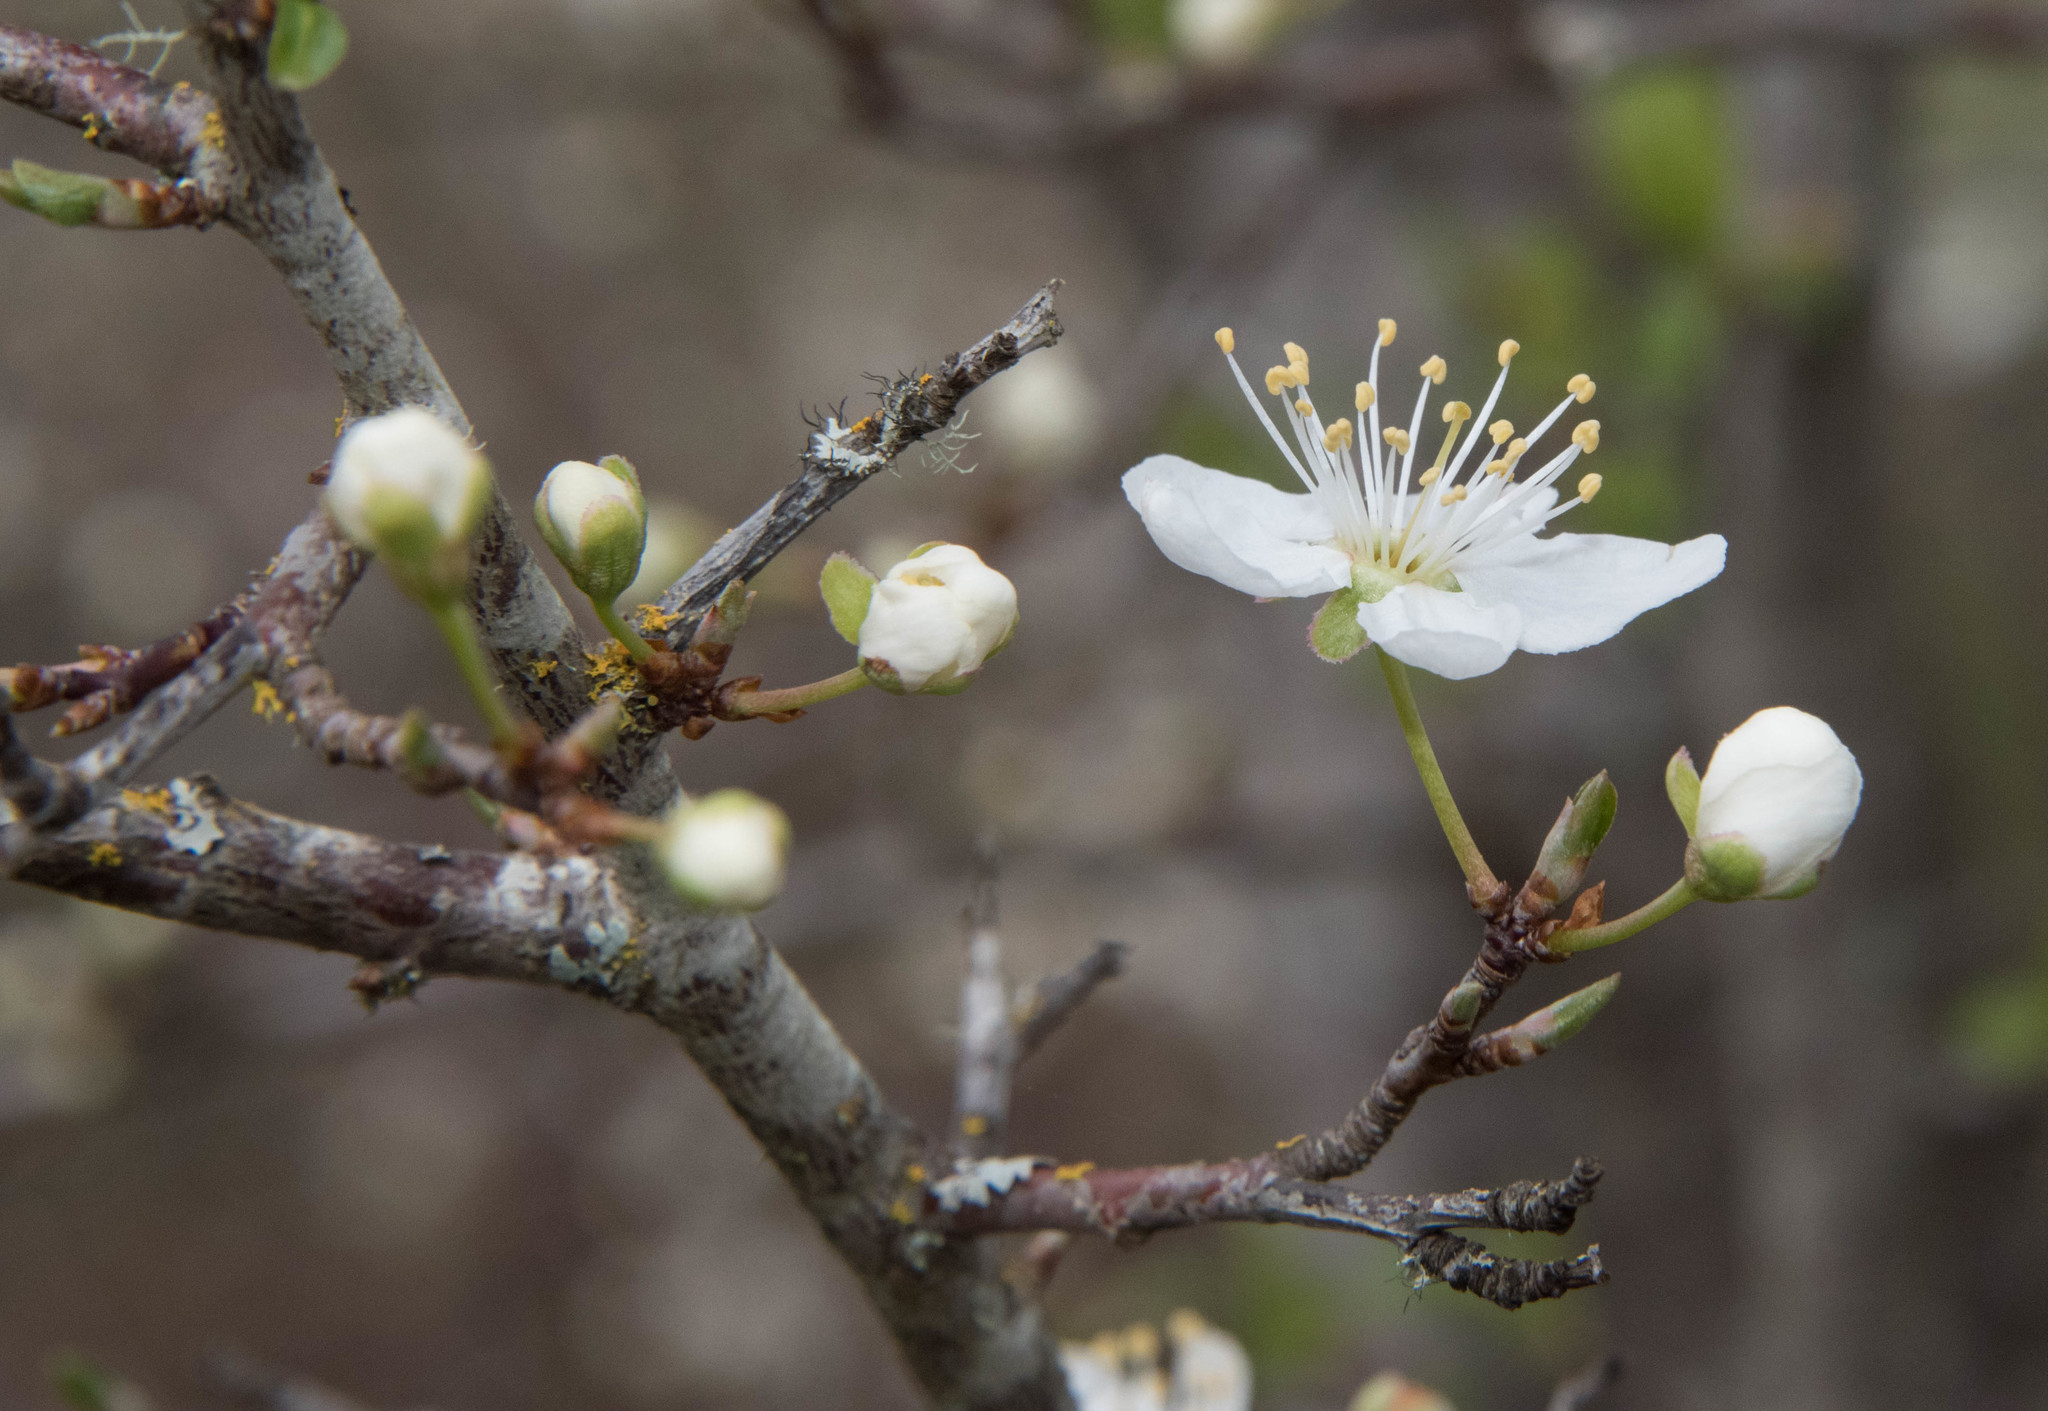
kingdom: Plantae
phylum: Tracheophyta
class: Magnoliopsida
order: Rosales
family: Rosaceae
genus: Prunus
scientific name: Prunus cerasifera
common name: Cherry plum
